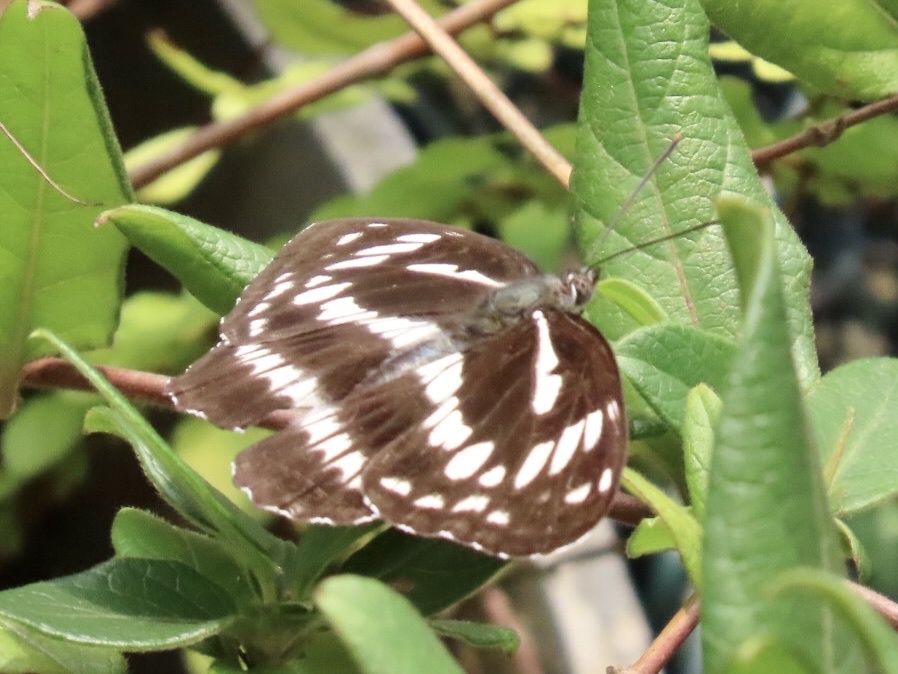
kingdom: Animalia
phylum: Arthropoda
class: Insecta
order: Lepidoptera
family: Nymphalidae
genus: Limenitis
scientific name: Limenitis sulpitia
